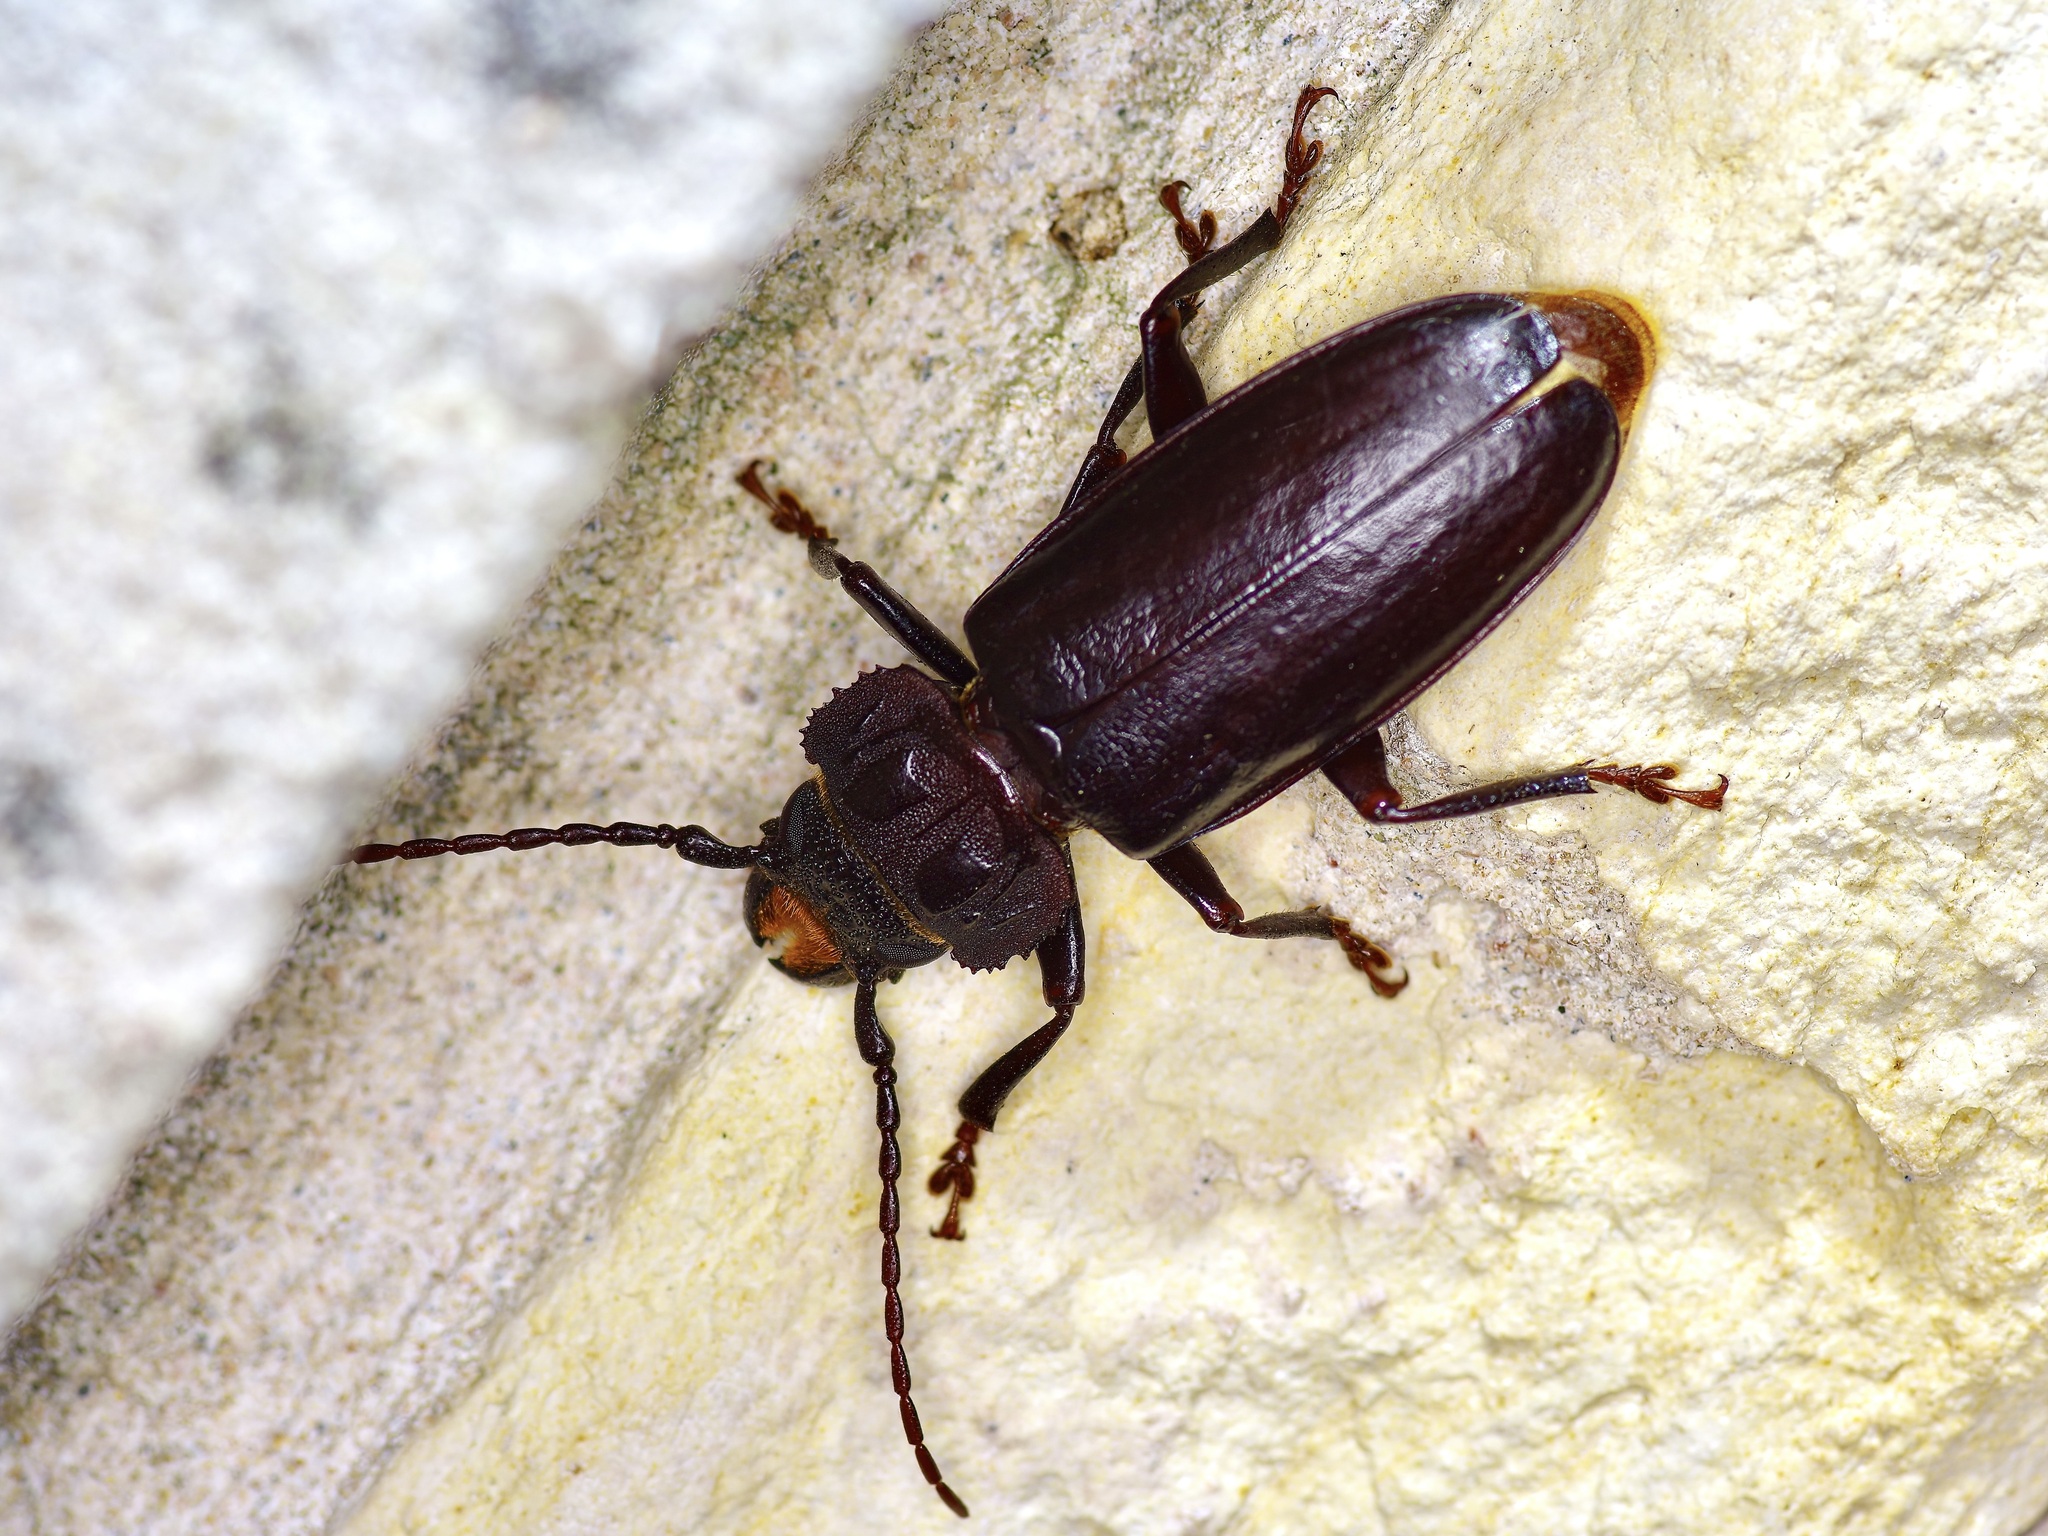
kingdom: Animalia
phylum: Arthropoda
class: Insecta
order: Coleoptera
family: Cerambycidae
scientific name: Cerambycidae
